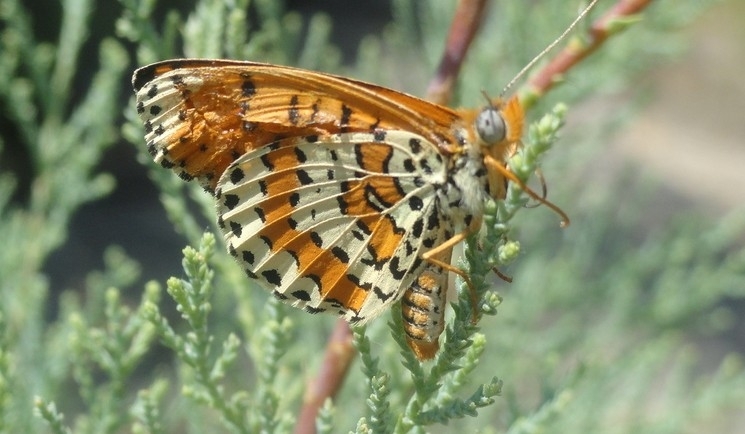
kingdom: Animalia
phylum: Arthropoda
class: Insecta
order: Lepidoptera
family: Nymphalidae
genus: Melitaea
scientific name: Melitaea didyma
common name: Spotted fritillary
